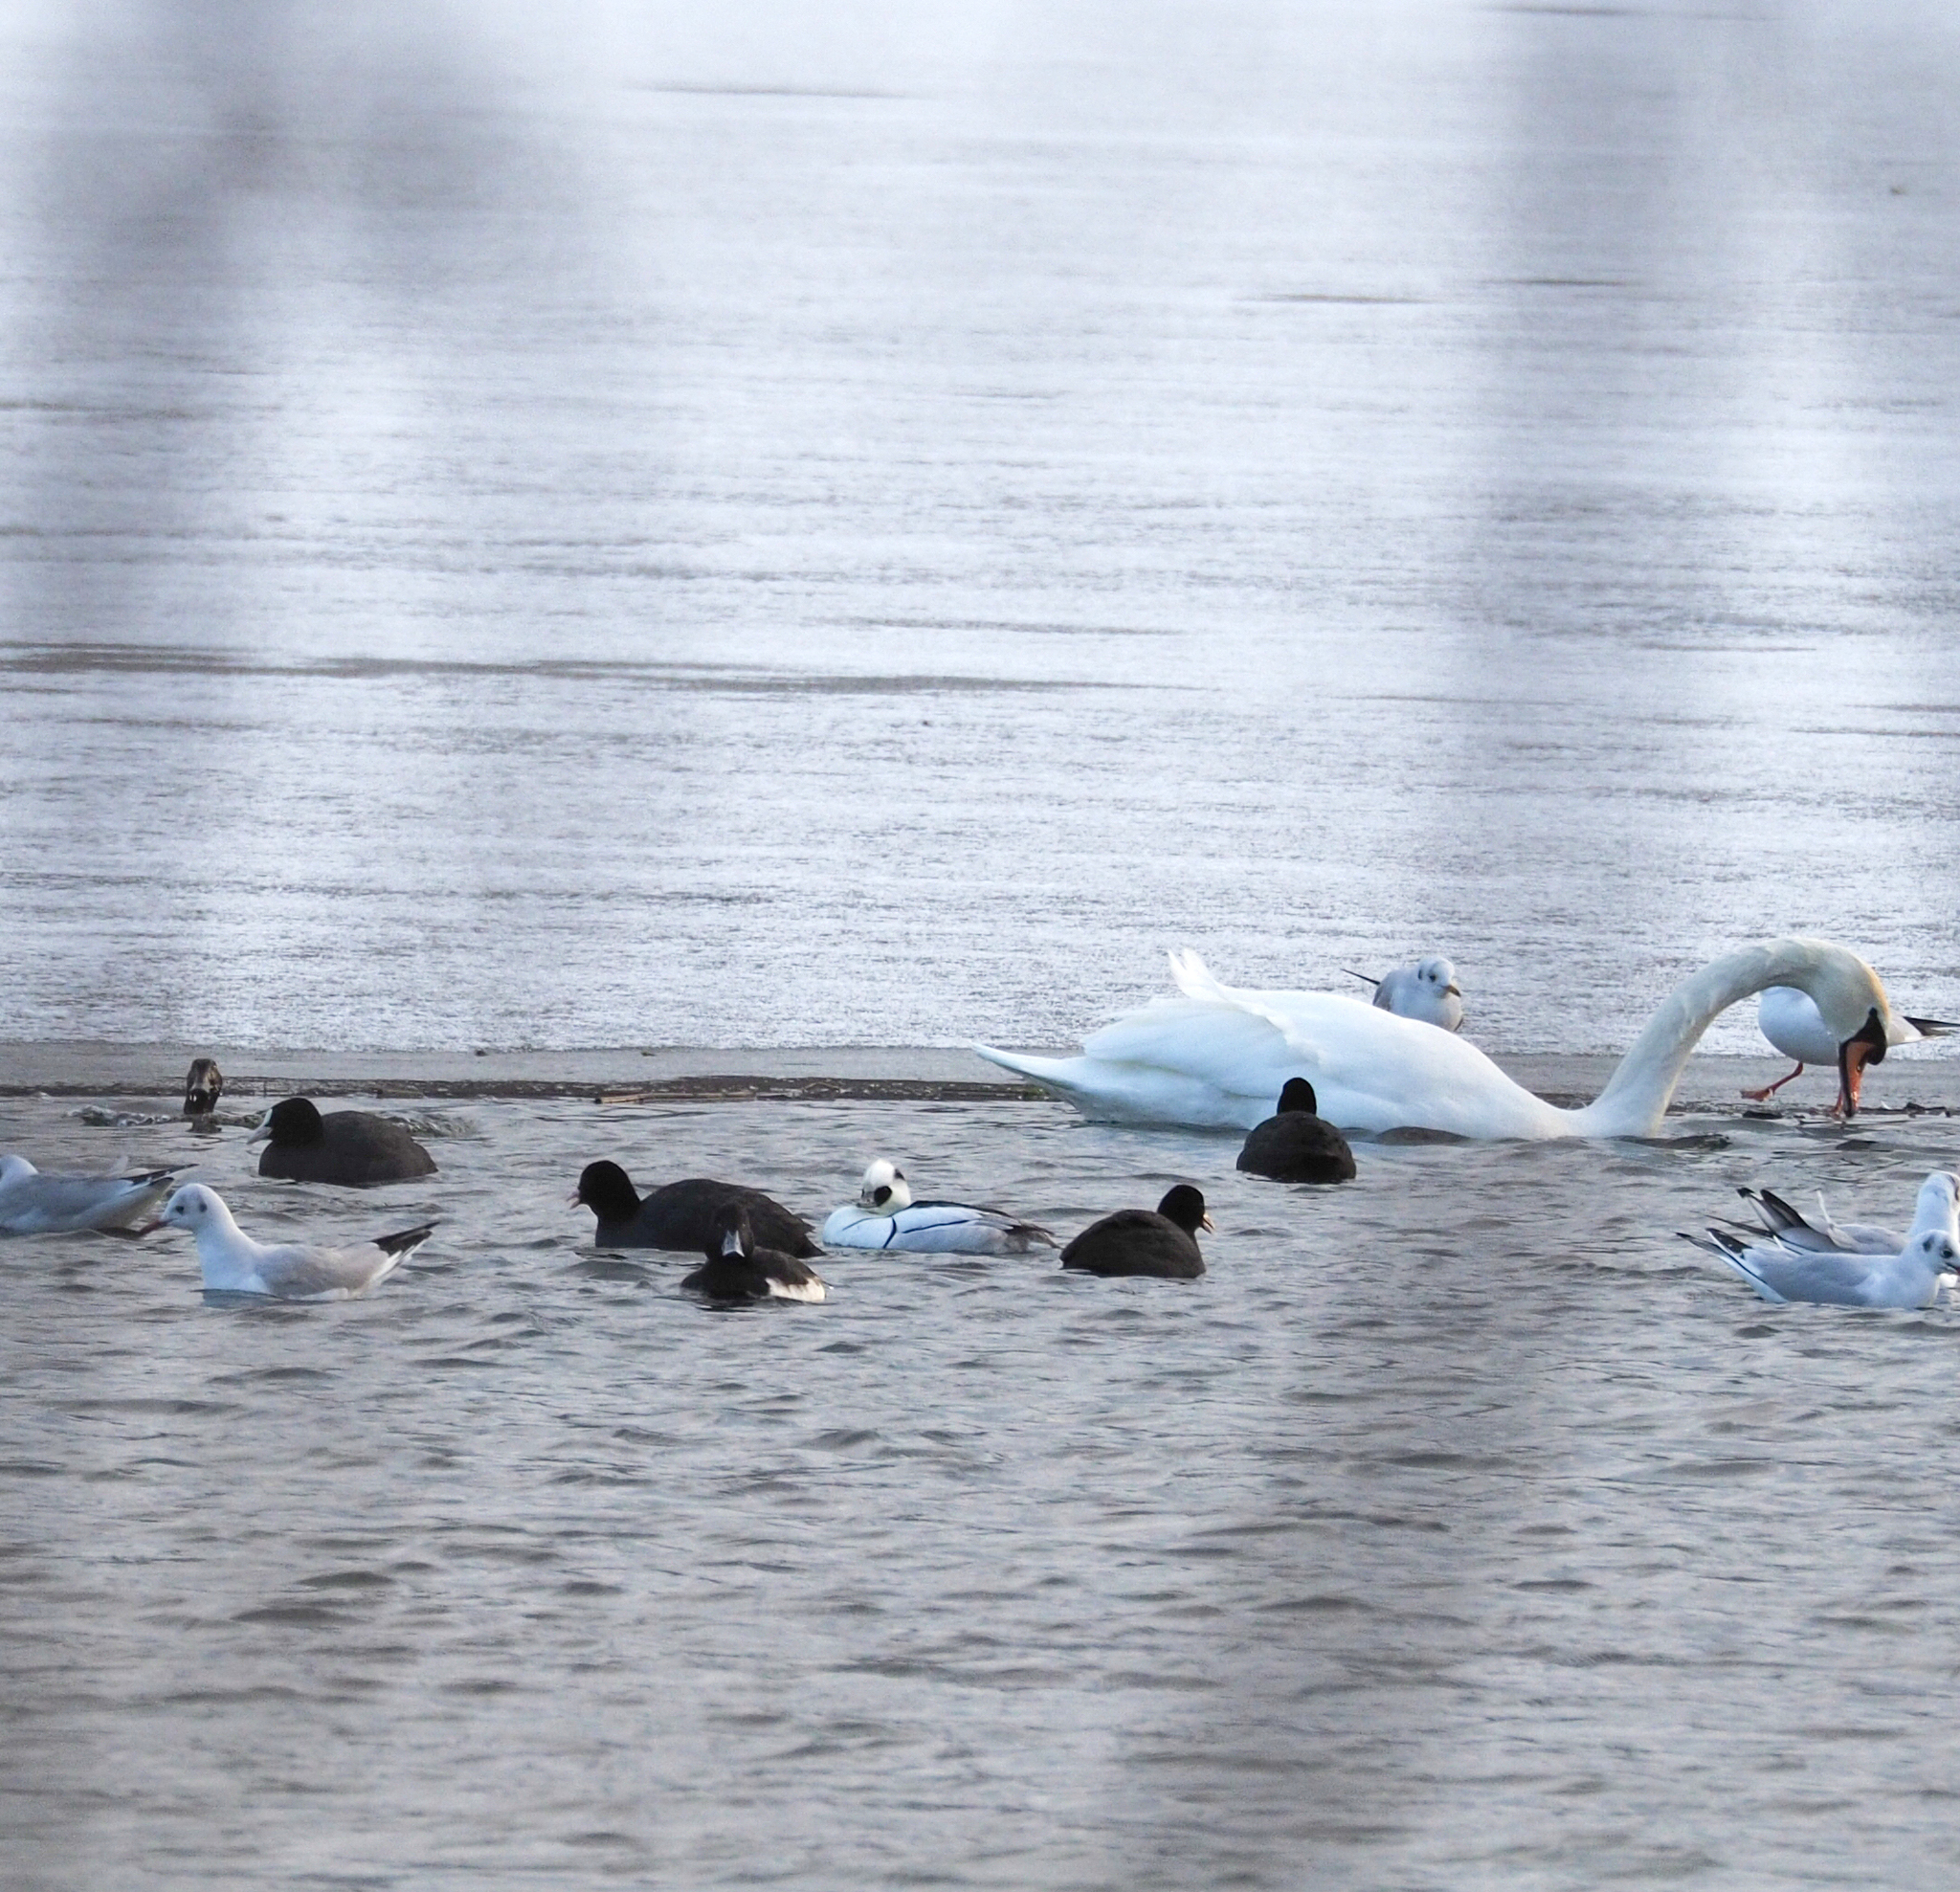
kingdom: Animalia
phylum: Chordata
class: Aves
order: Anseriformes
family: Anatidae
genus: Mergellus
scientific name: Mergellus albellus
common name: Smew
